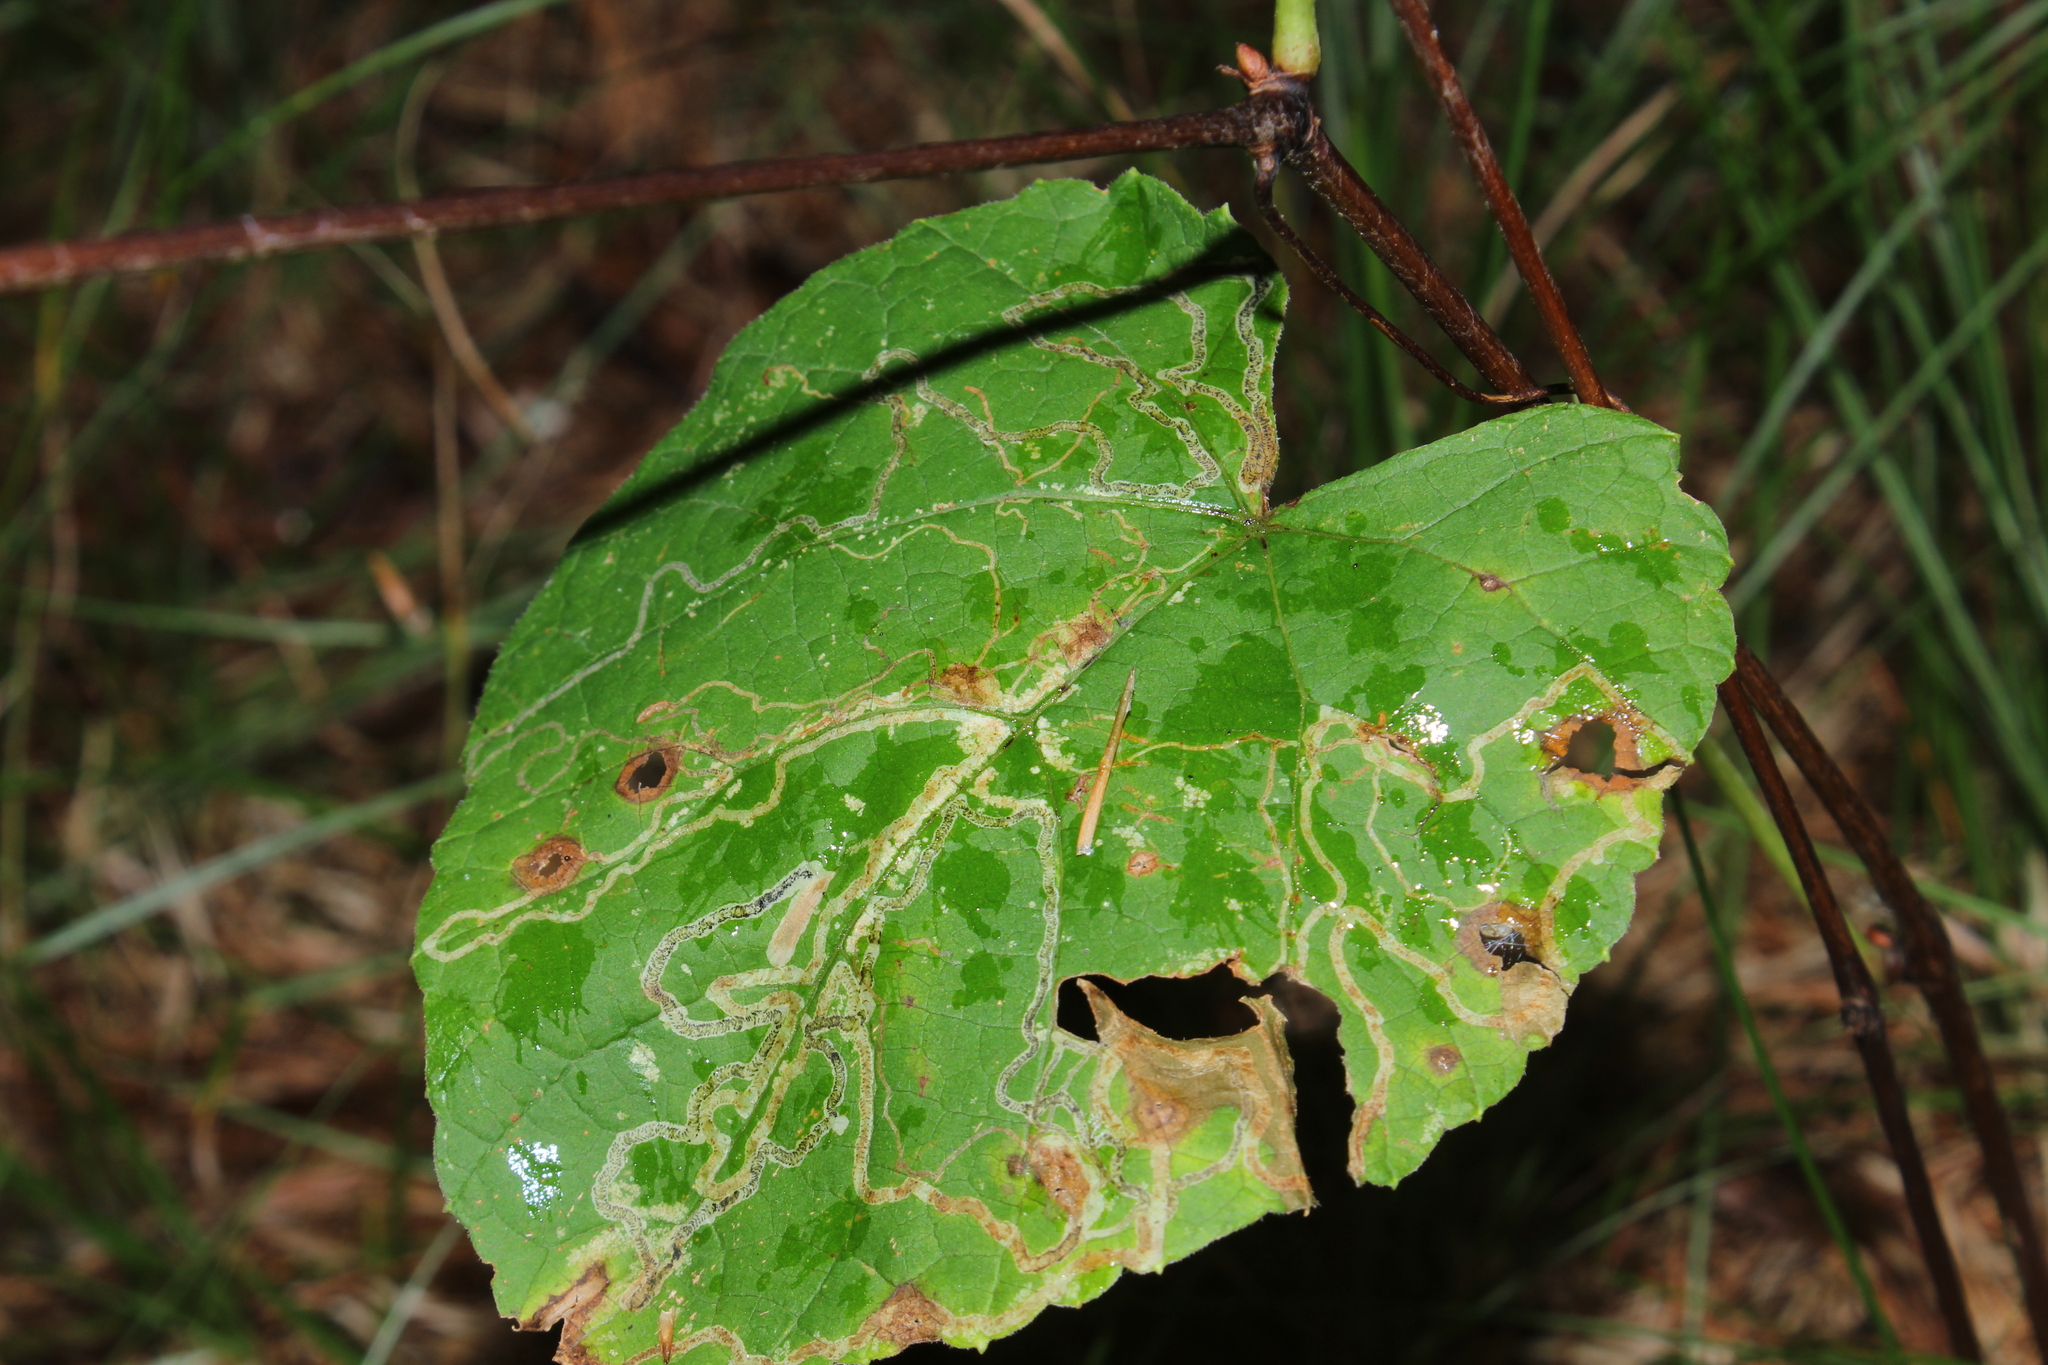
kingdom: Animalia
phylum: Arthropoda
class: Insecta
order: Lepidoptera
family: Gracillariidae
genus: Phyllocnistis
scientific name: Phyllocnistis vitifoliella
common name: Grape leaf-miner moth
